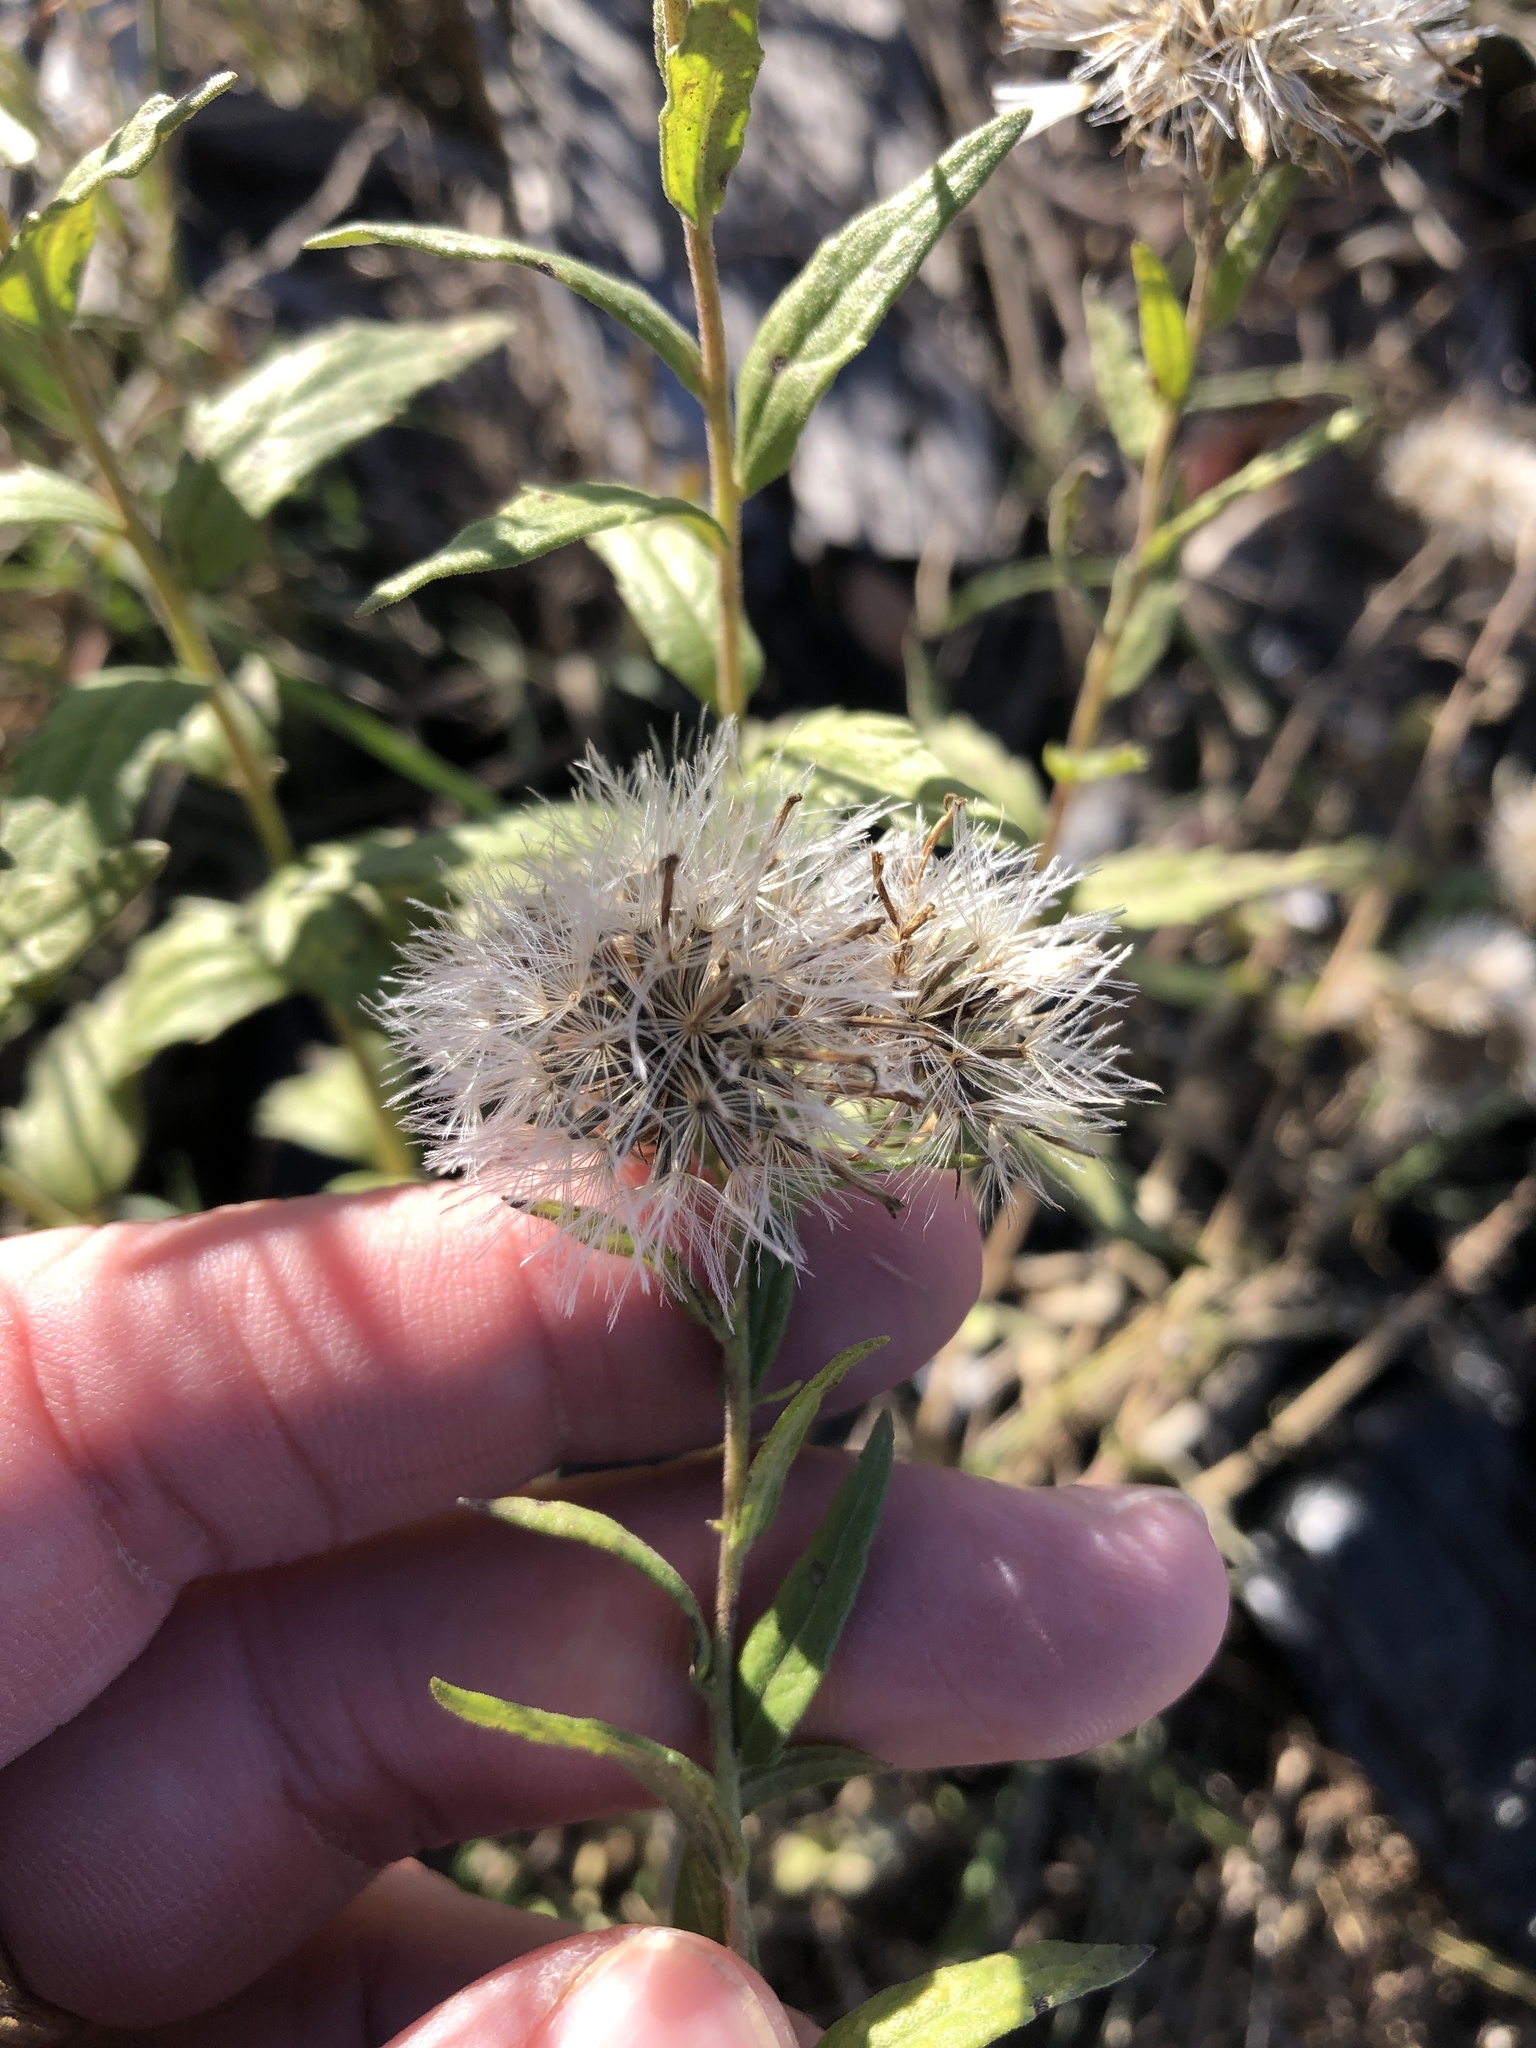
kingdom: Plantae
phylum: Tracheophyta
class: Magnoliopsida
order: Asterales
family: Asteraceae
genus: Brickellia
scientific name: Brickellia eupatorioides
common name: False boneset
